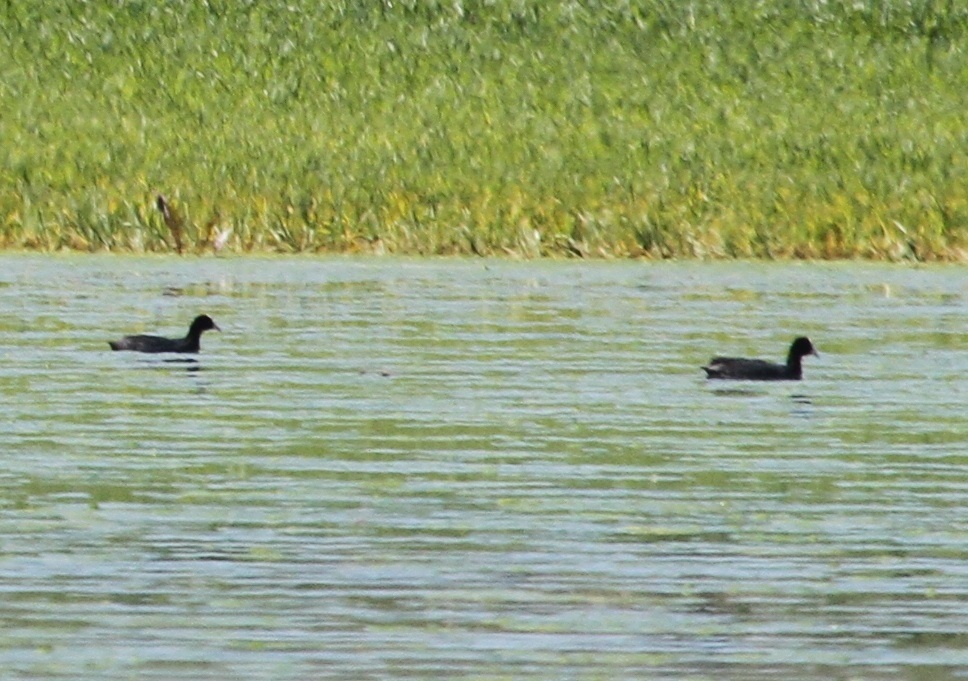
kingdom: Animalia
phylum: Chordata
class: Aves
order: Gruiformes
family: Rallidae
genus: Fulica
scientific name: Fulica atra
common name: Eurasian coot
